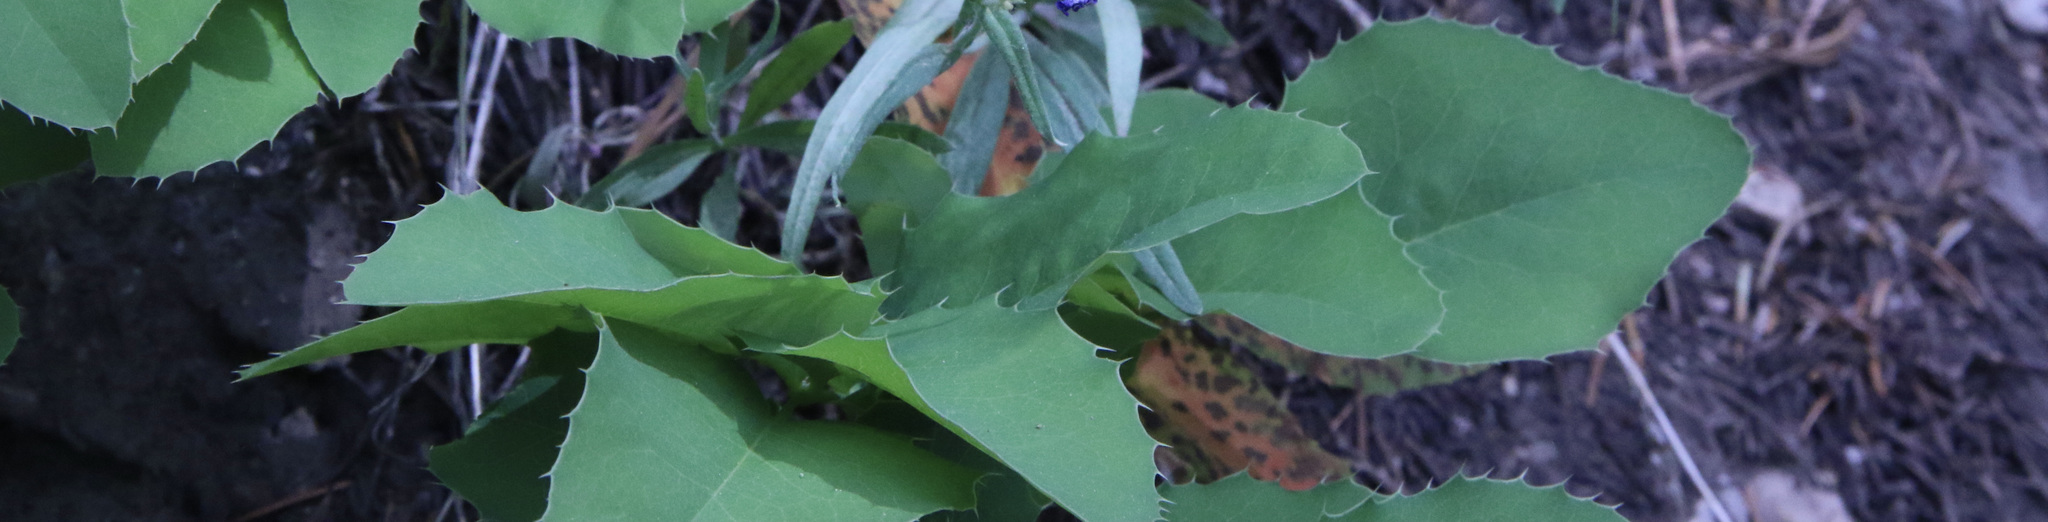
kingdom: Plantae
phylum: Tracheophyta
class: Magnoliopsida
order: Ranunculales
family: Berberidaceae
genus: Mahonia
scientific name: Mahonia repens
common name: Creeping oregon-grape
